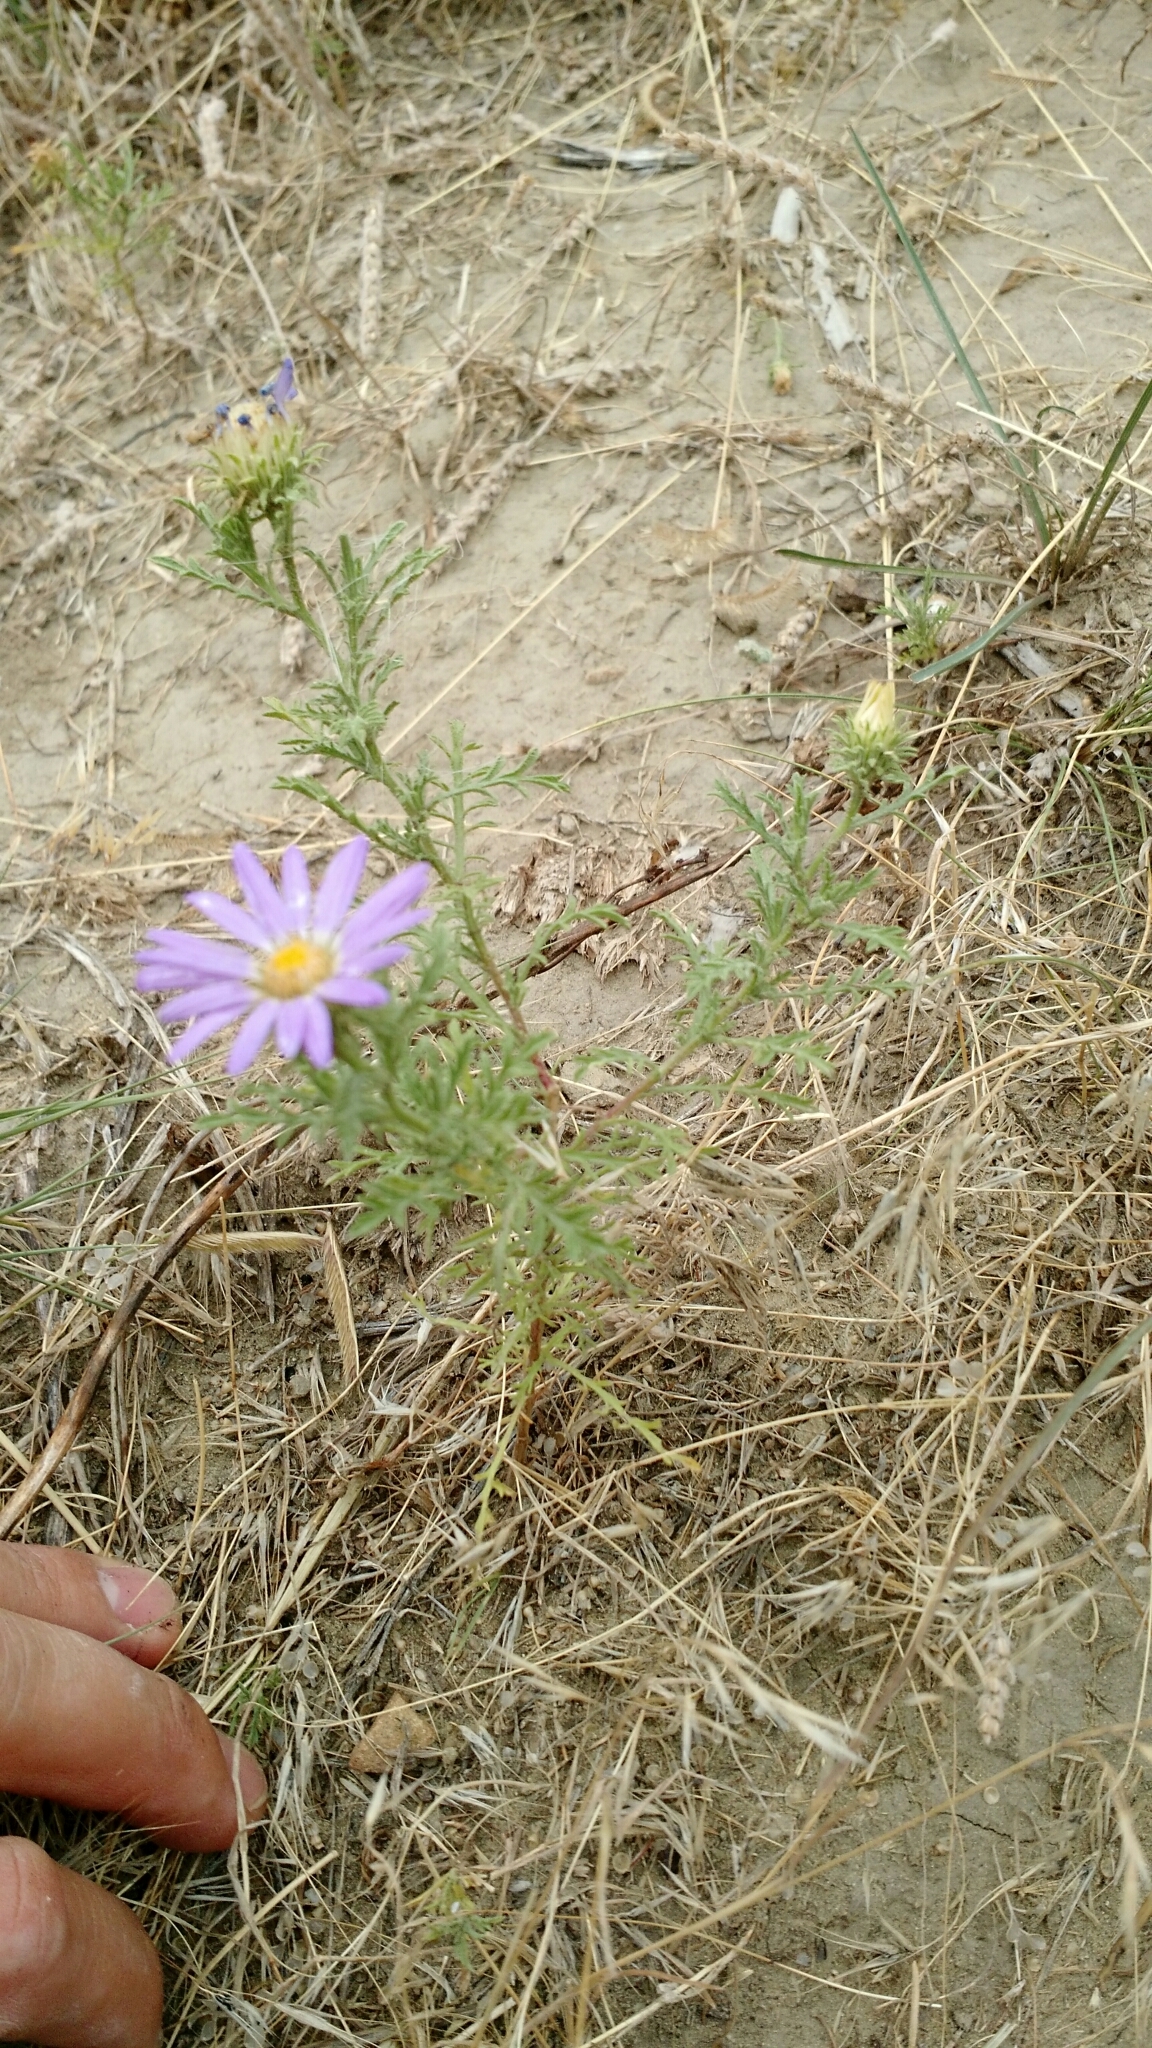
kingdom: Plantae
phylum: Tracheophyta
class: Magnoliopsida
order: Asterales
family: Asteraceae
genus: Machaeranthera
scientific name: Machaeranthera tanacetifolia
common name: Tansy-aster
